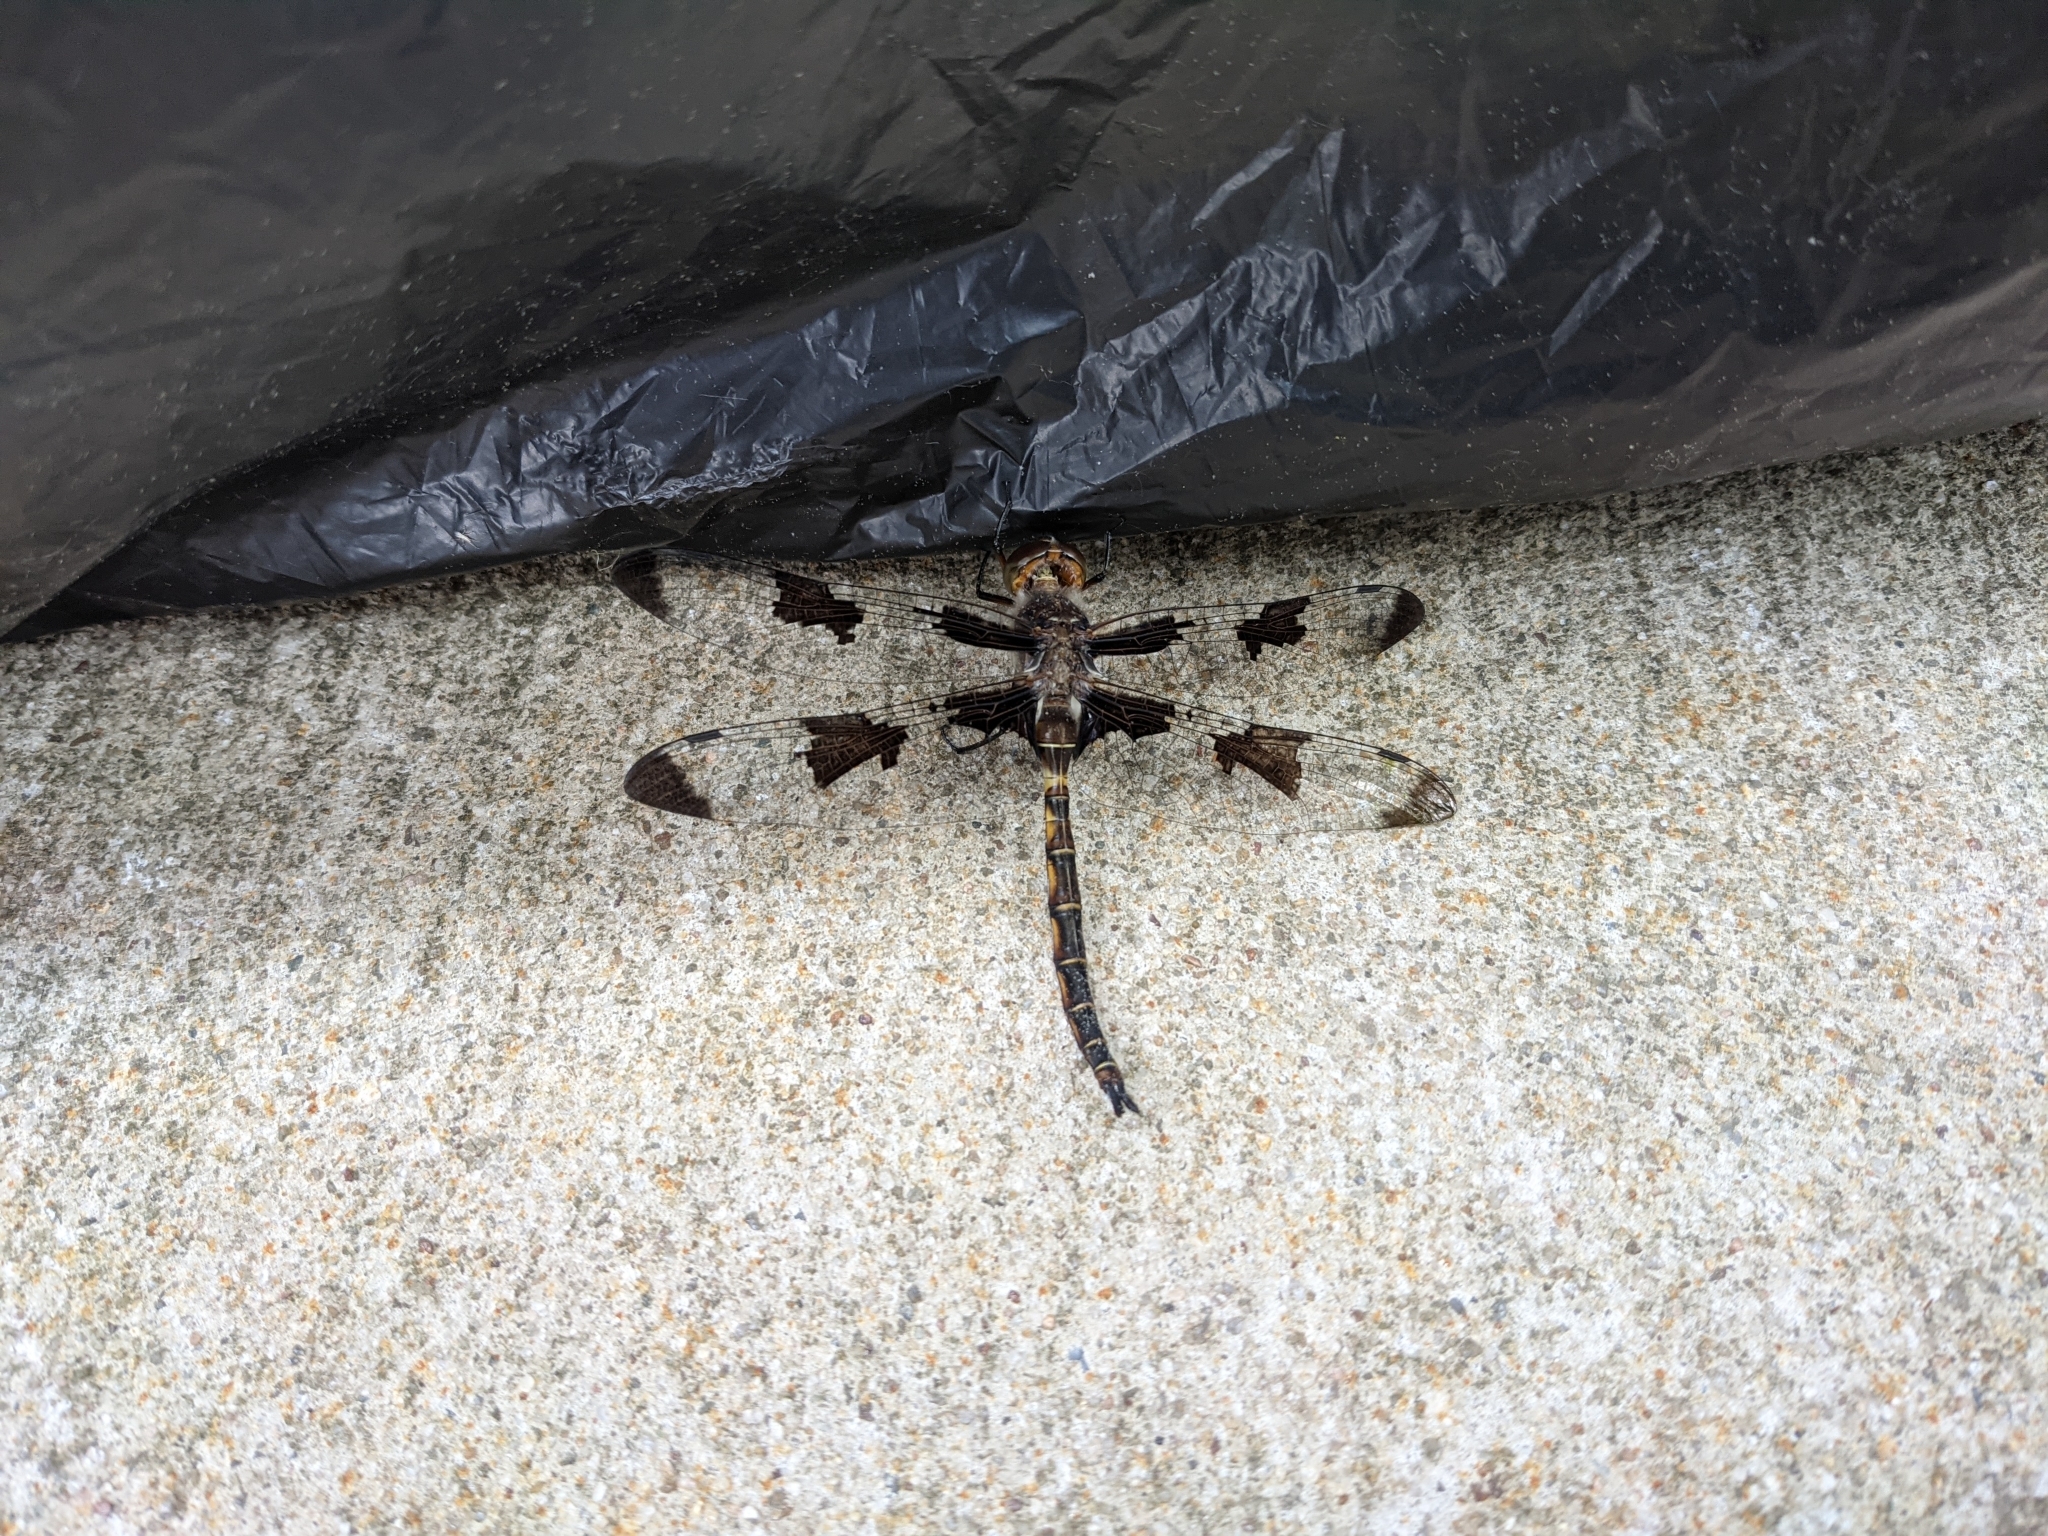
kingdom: Animalia
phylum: Arthropoda
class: Insecta
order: Odonata
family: Corduliidae
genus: Epitheca
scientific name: Epitheca princeps
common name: Prince baskettail
